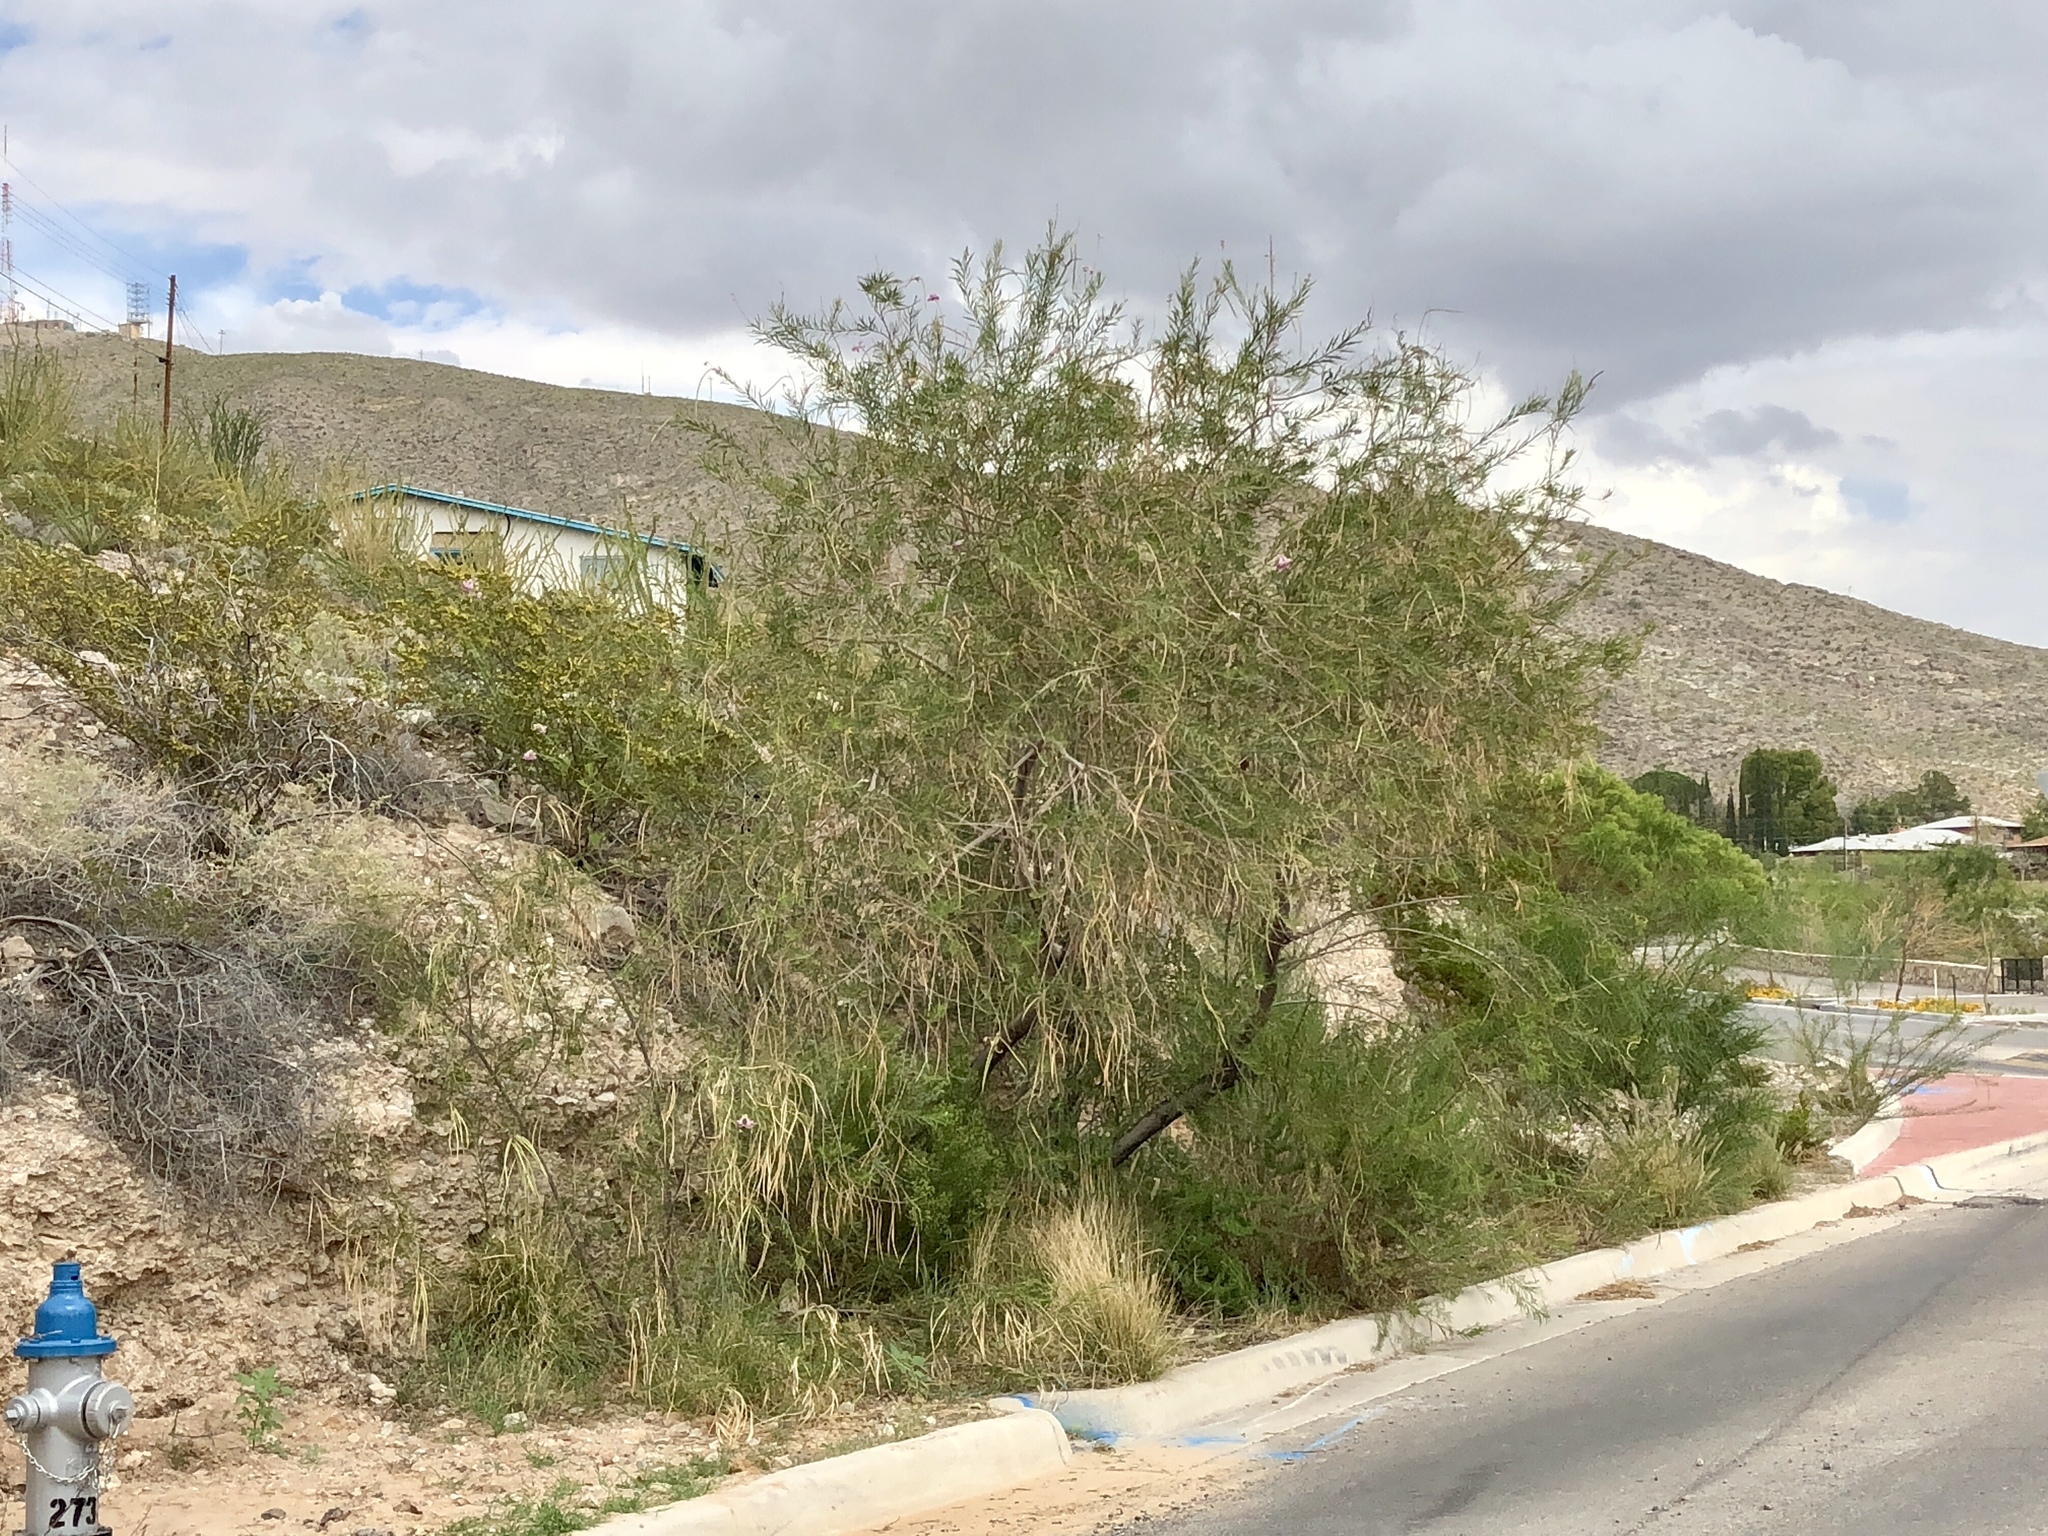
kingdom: Plantae
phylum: Tracheophyta
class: Magnoliopsida
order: Lamiales
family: Bignoniaceae
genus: Chilopsis
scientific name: Chilopsis linearis
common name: Desert-willow
